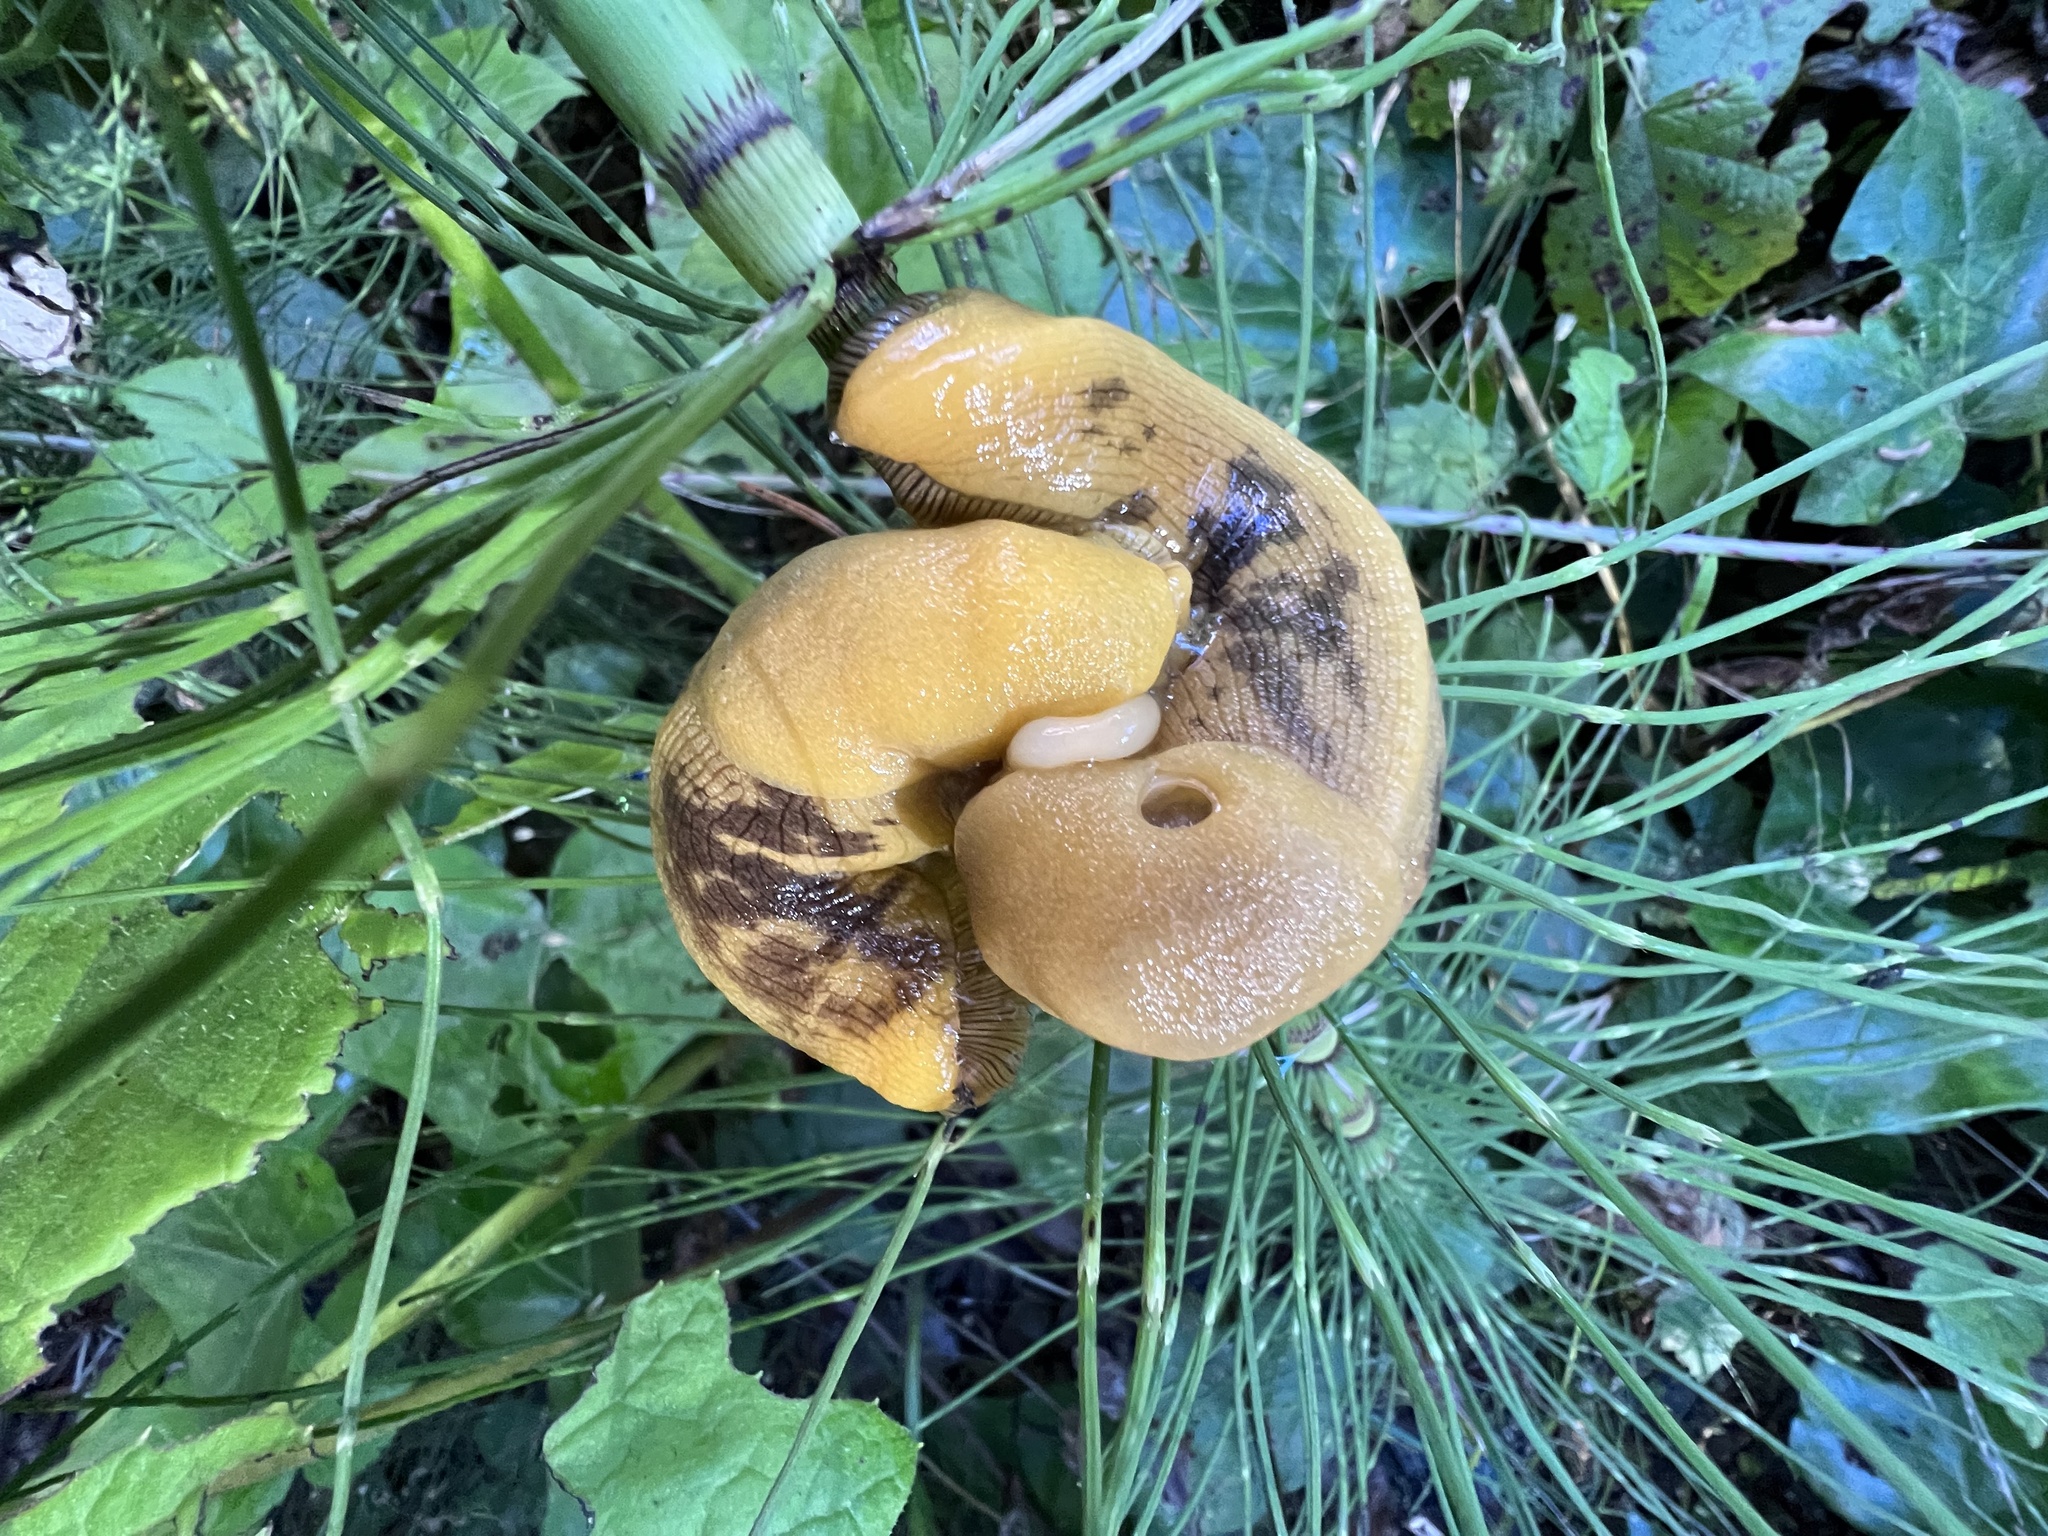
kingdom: Animalia
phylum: Mollusca
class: Gastropoda
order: Stylommatophora
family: Ariolimacidae
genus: Ariolimax
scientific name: Ariolimax columbianus
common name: Pacific banana slug
